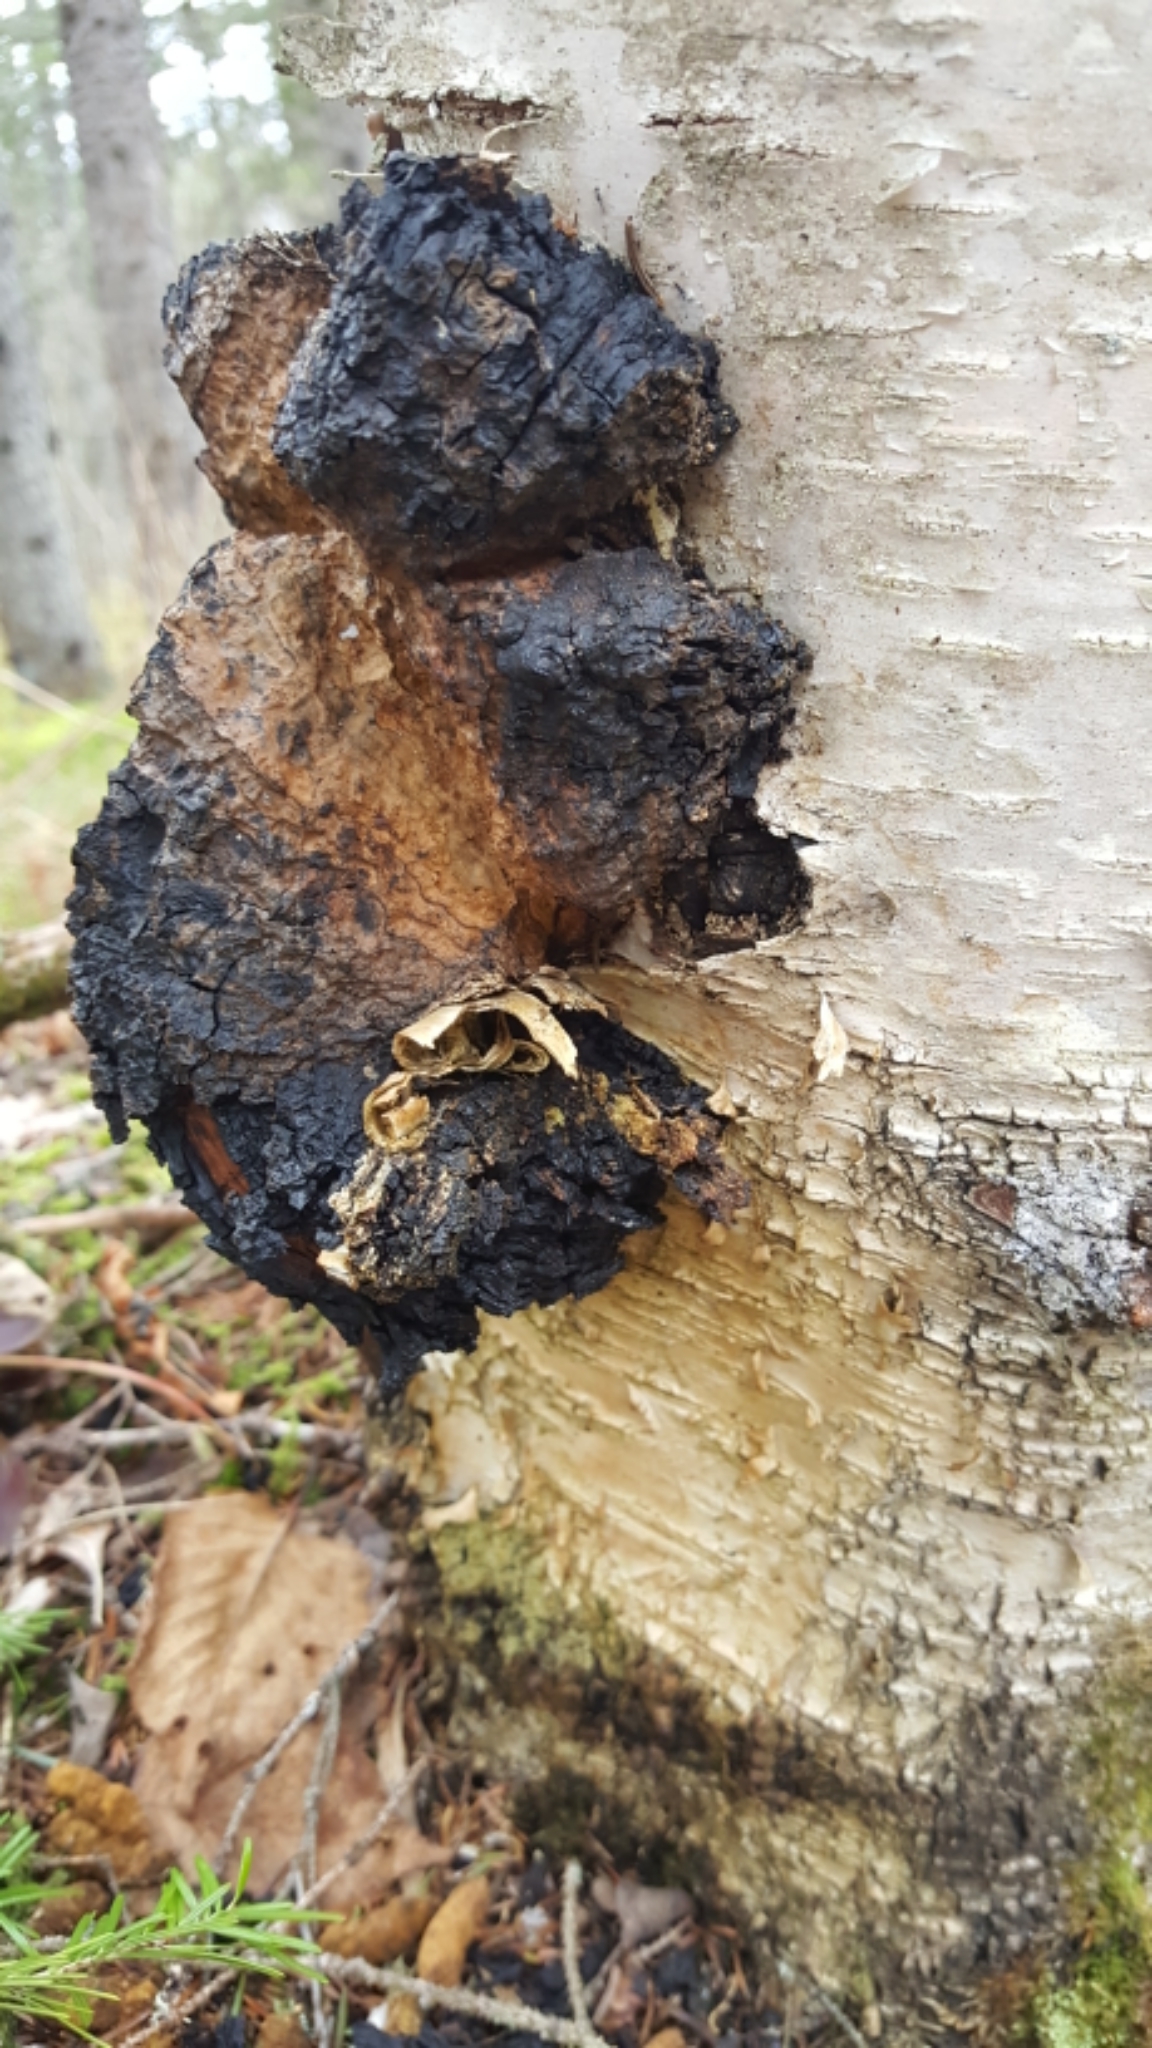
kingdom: Fungi
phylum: Basidiomycota
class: Agaricomycetes
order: Hymenochaetales
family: Hymenochaetaceae
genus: Inonotus
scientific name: Inonotus obliquus
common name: Chaga
